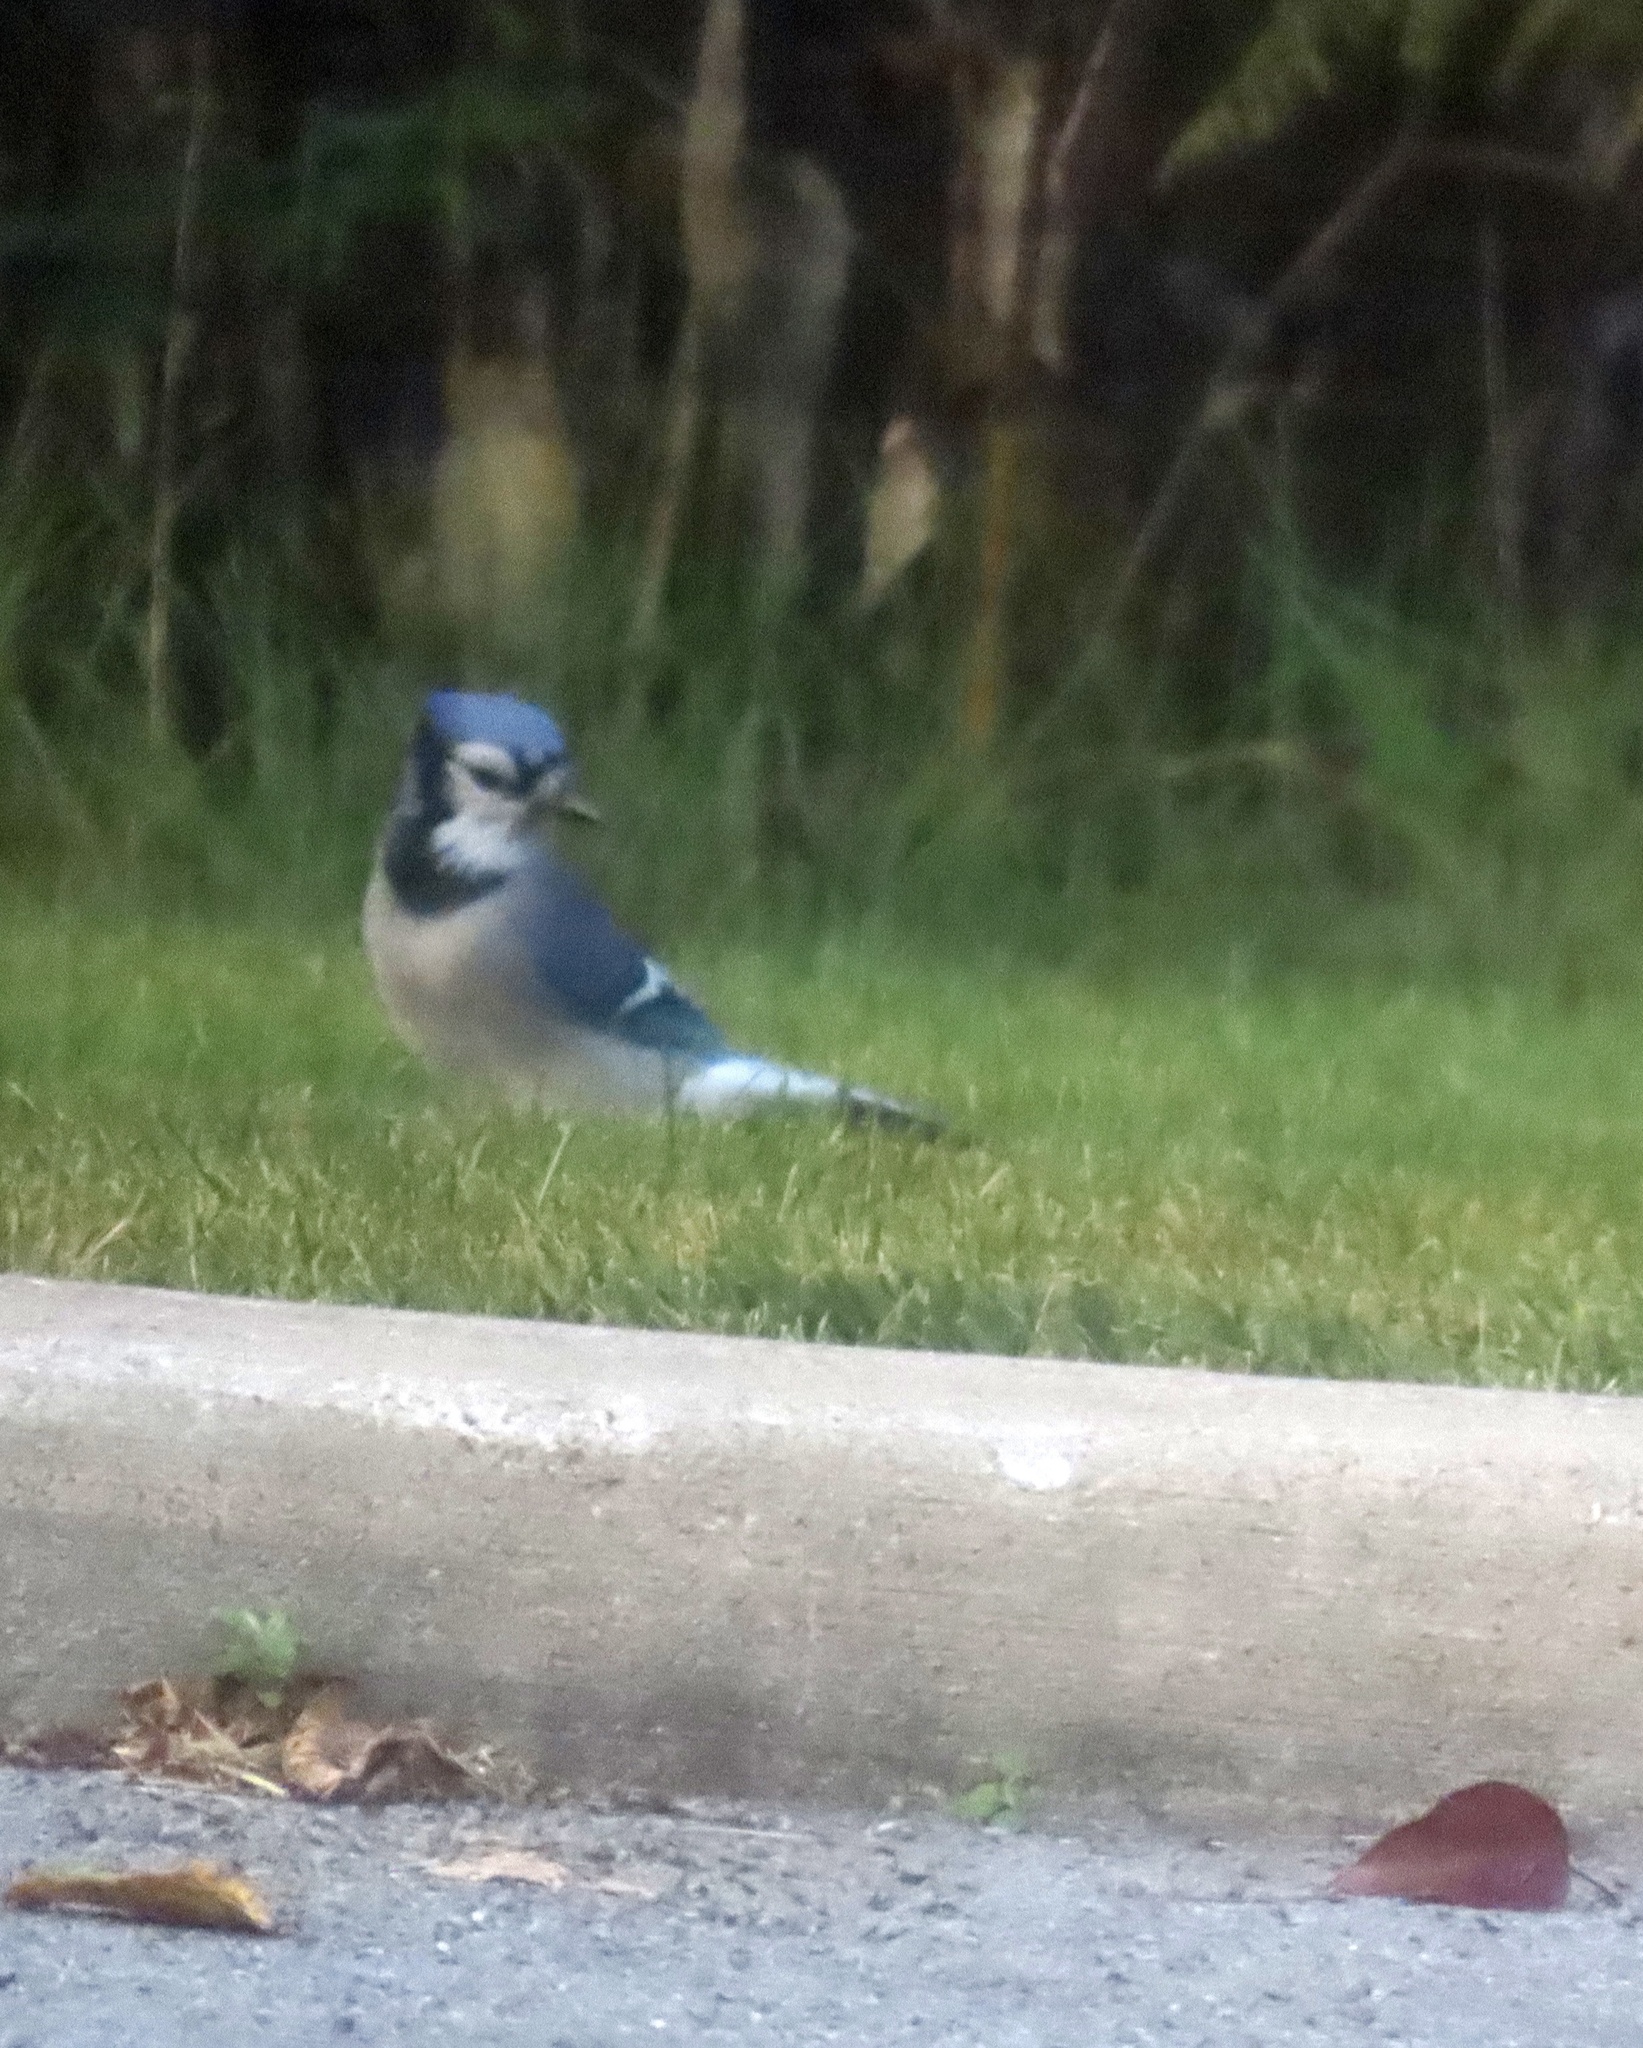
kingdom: Animalia
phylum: Chordata
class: Aves
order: Passeriformes
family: Corvidae
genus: Cyanocitta
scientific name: Cyanocitta cristata
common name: Blue jay
